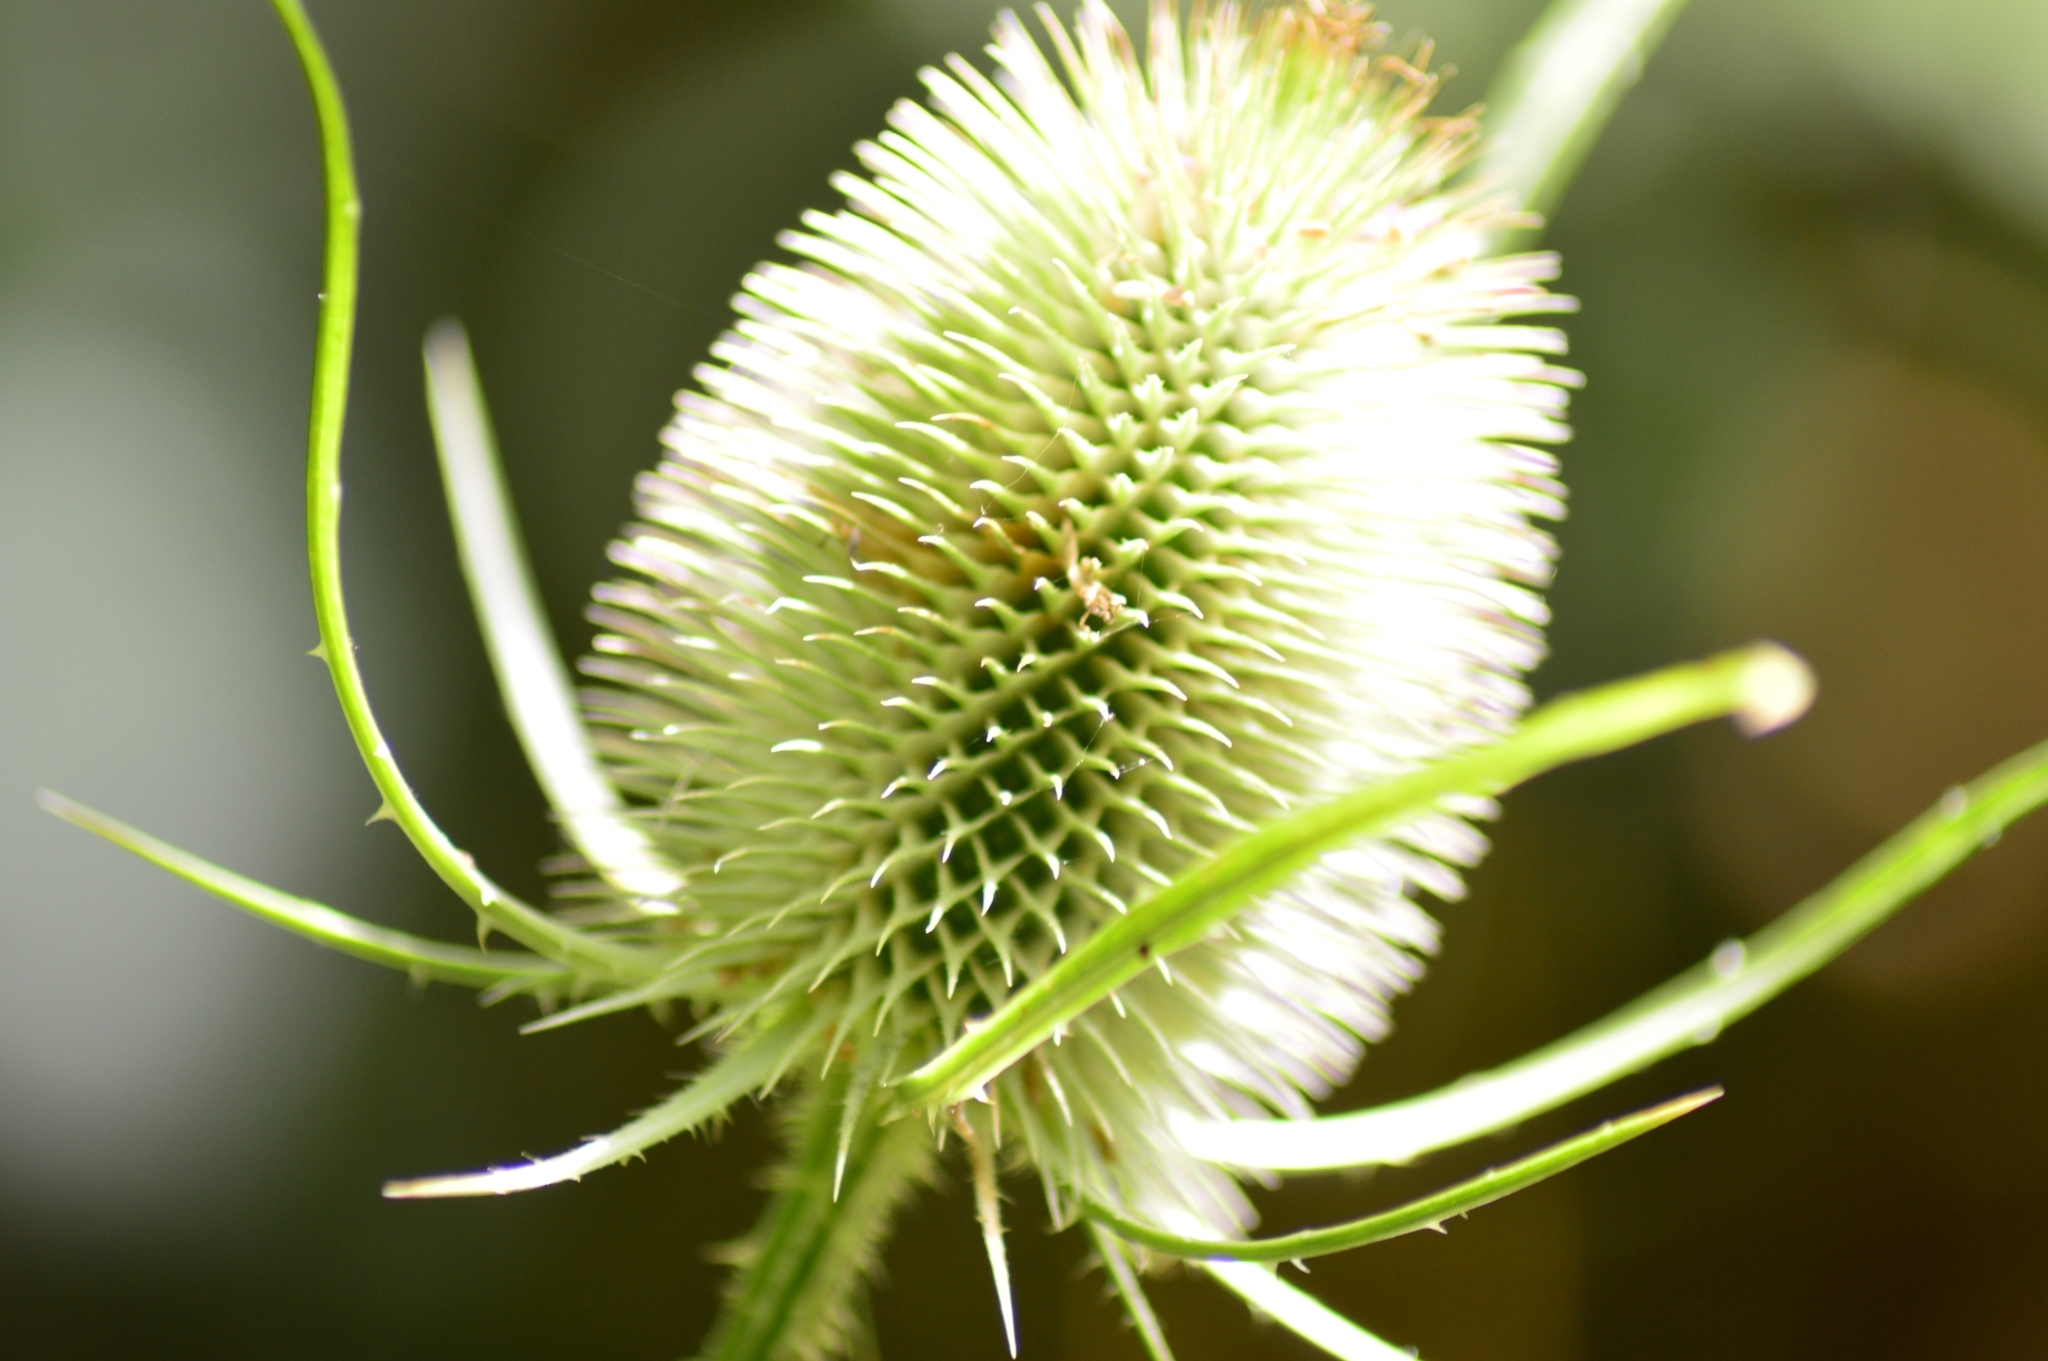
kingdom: Plantae
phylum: Tracheophyta
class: Magnoliopsida
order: Dipsacales
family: Caprifoliaceae
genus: Dipsacus
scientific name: Dipsacus fullonum
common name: Teasel
